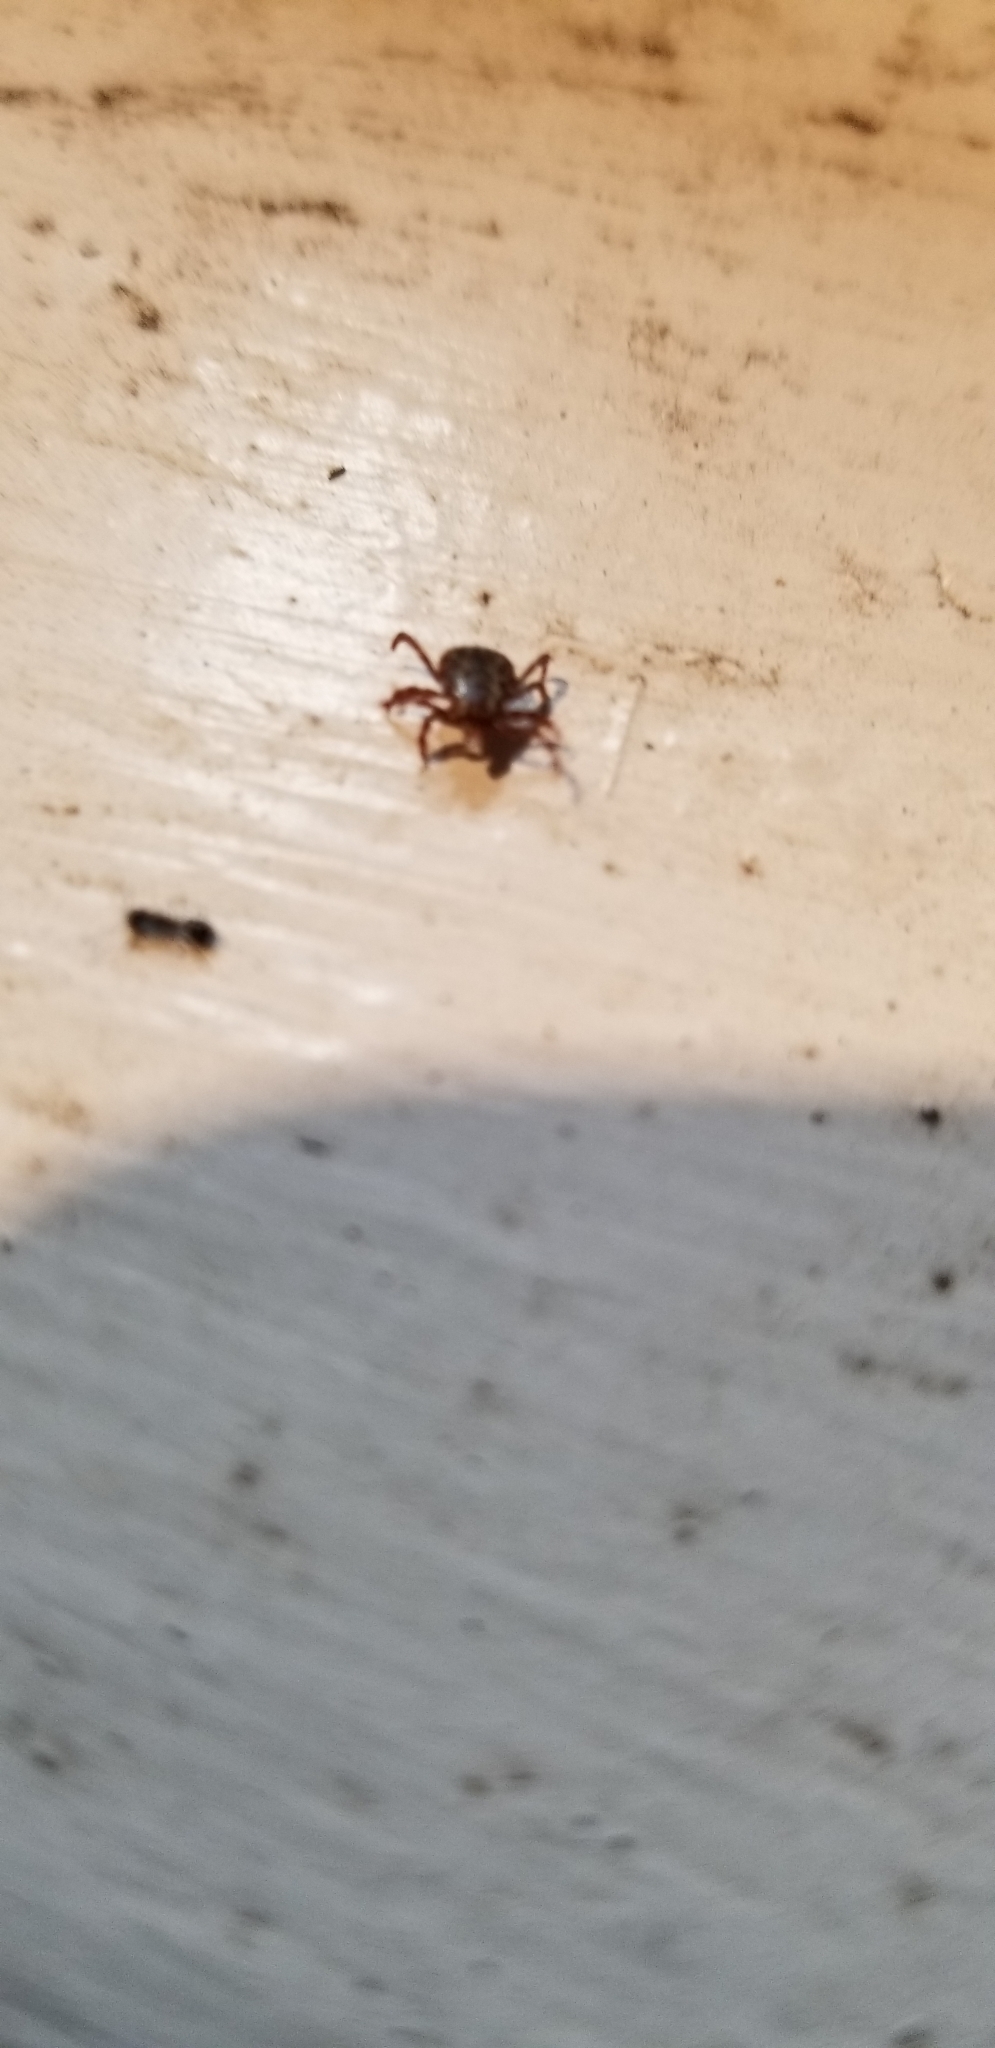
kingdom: Animalia
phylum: Arthropoda
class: Arachnida
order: Ixodida
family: Ixodidae
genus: Dermacentor
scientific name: Dermacentor variabilis
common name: American dog tick
